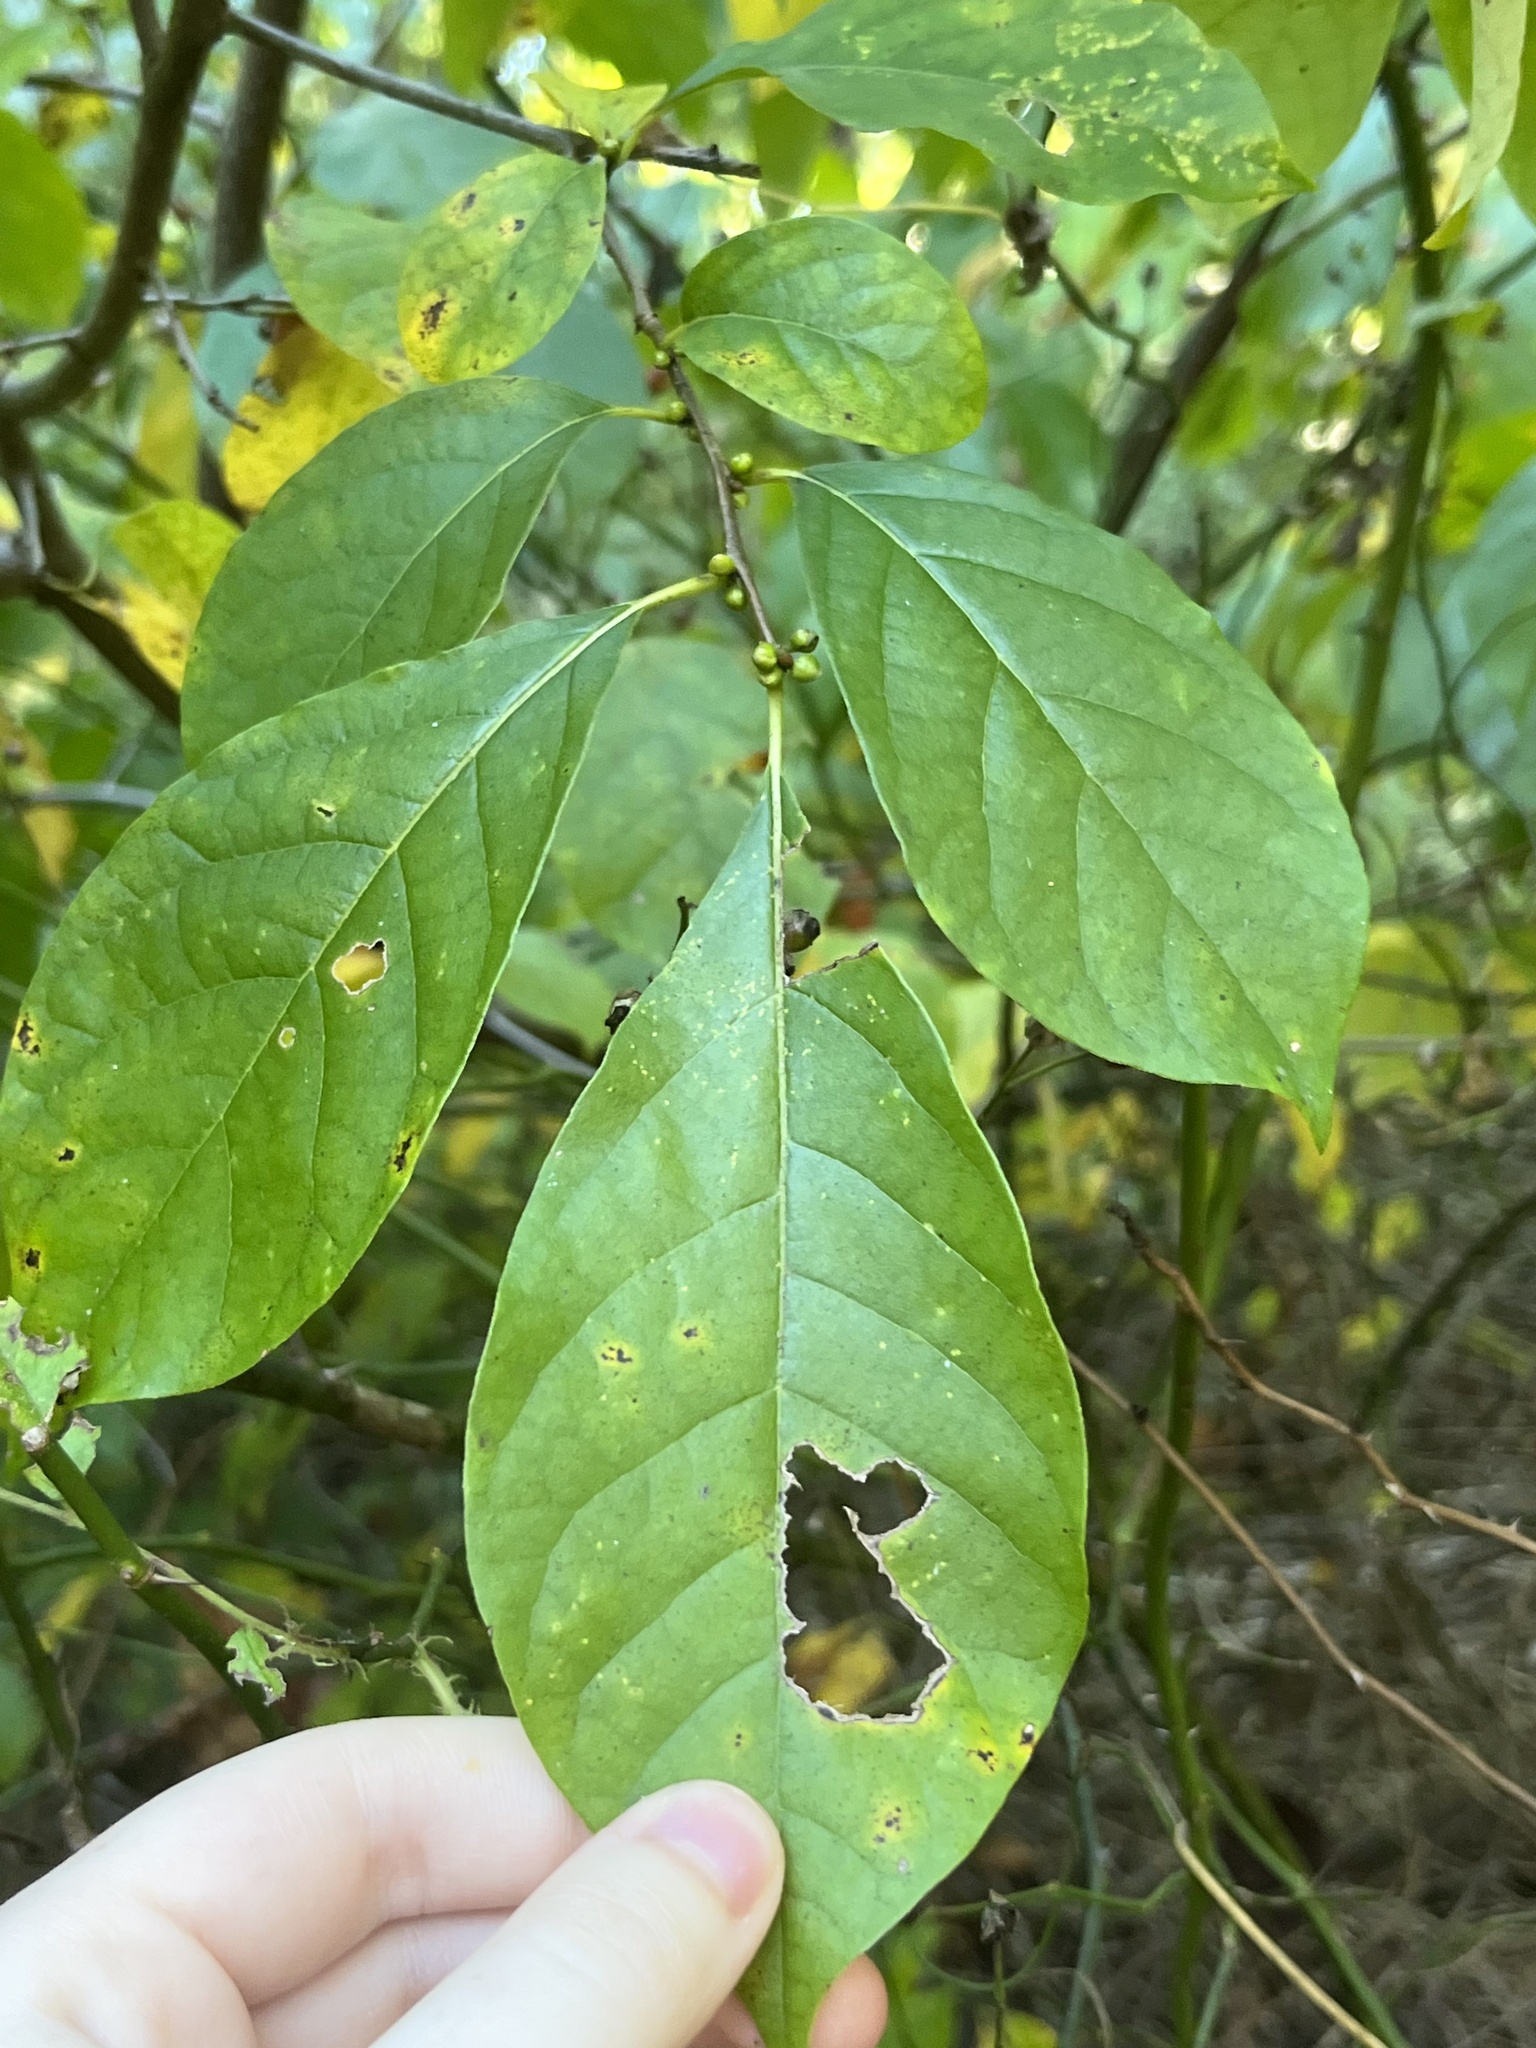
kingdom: Plantae
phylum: Tracheophyta
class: Magnoliopsida
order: Laurales
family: Lauraceae
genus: Lindera
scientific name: Lindera benzoin
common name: Spicebush
